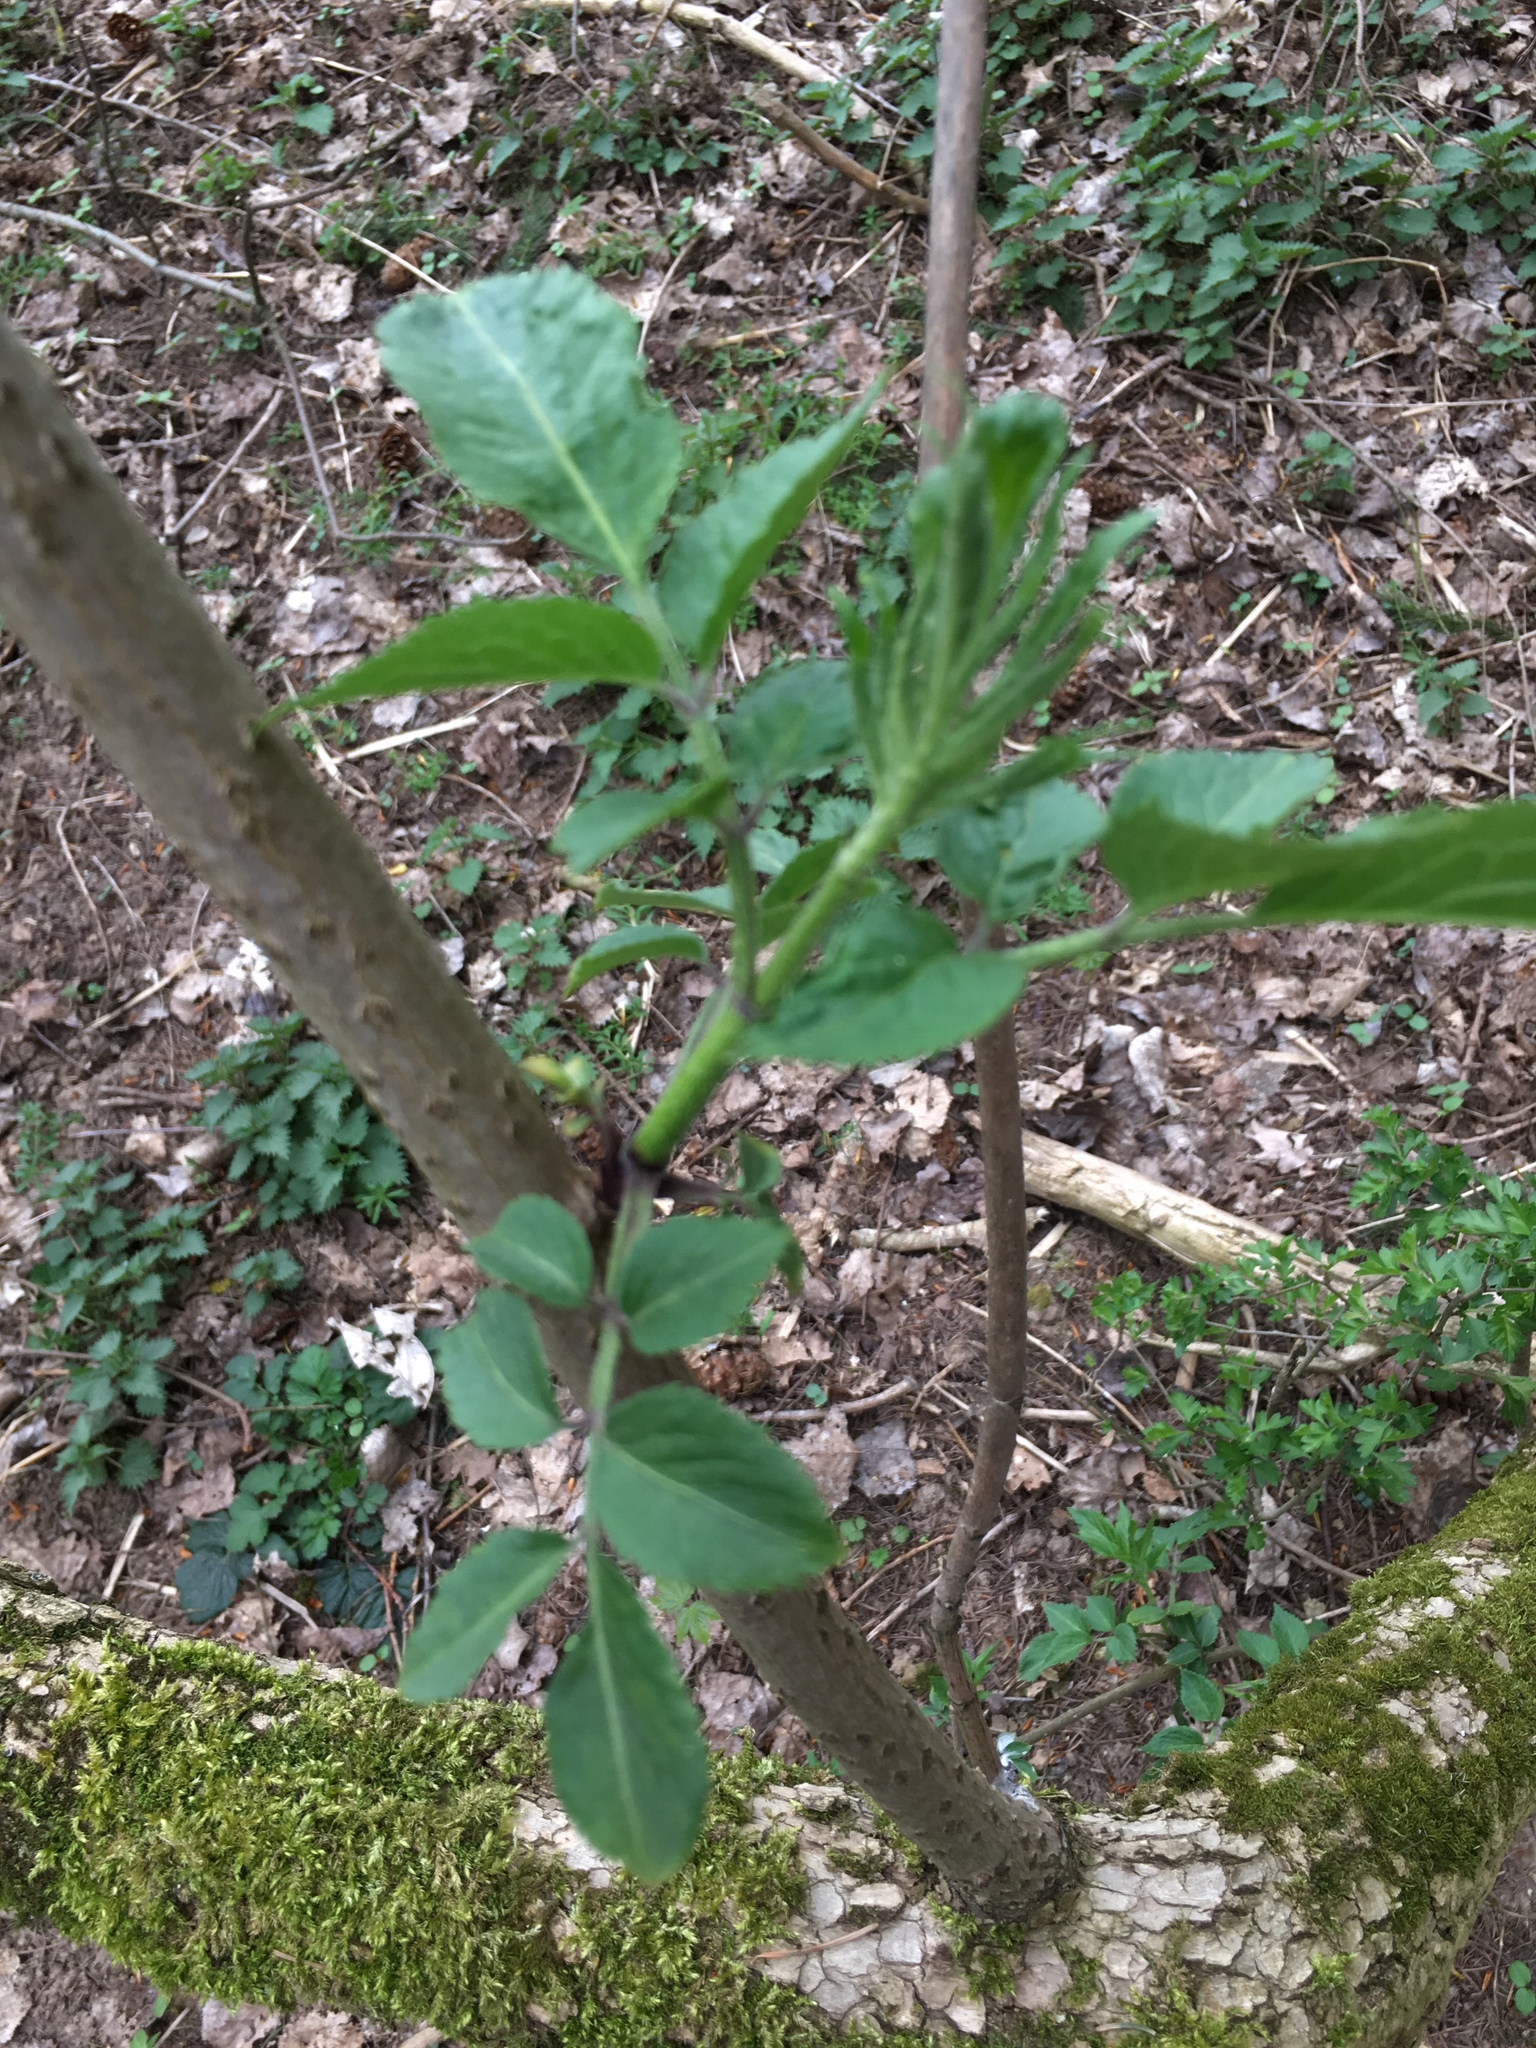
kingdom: Plantae
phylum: Tracheophyta
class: Magnoliopsida
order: Dipsacales
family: Viburnaceae
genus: Sambucus
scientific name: Sambucus nigra
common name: Elder
